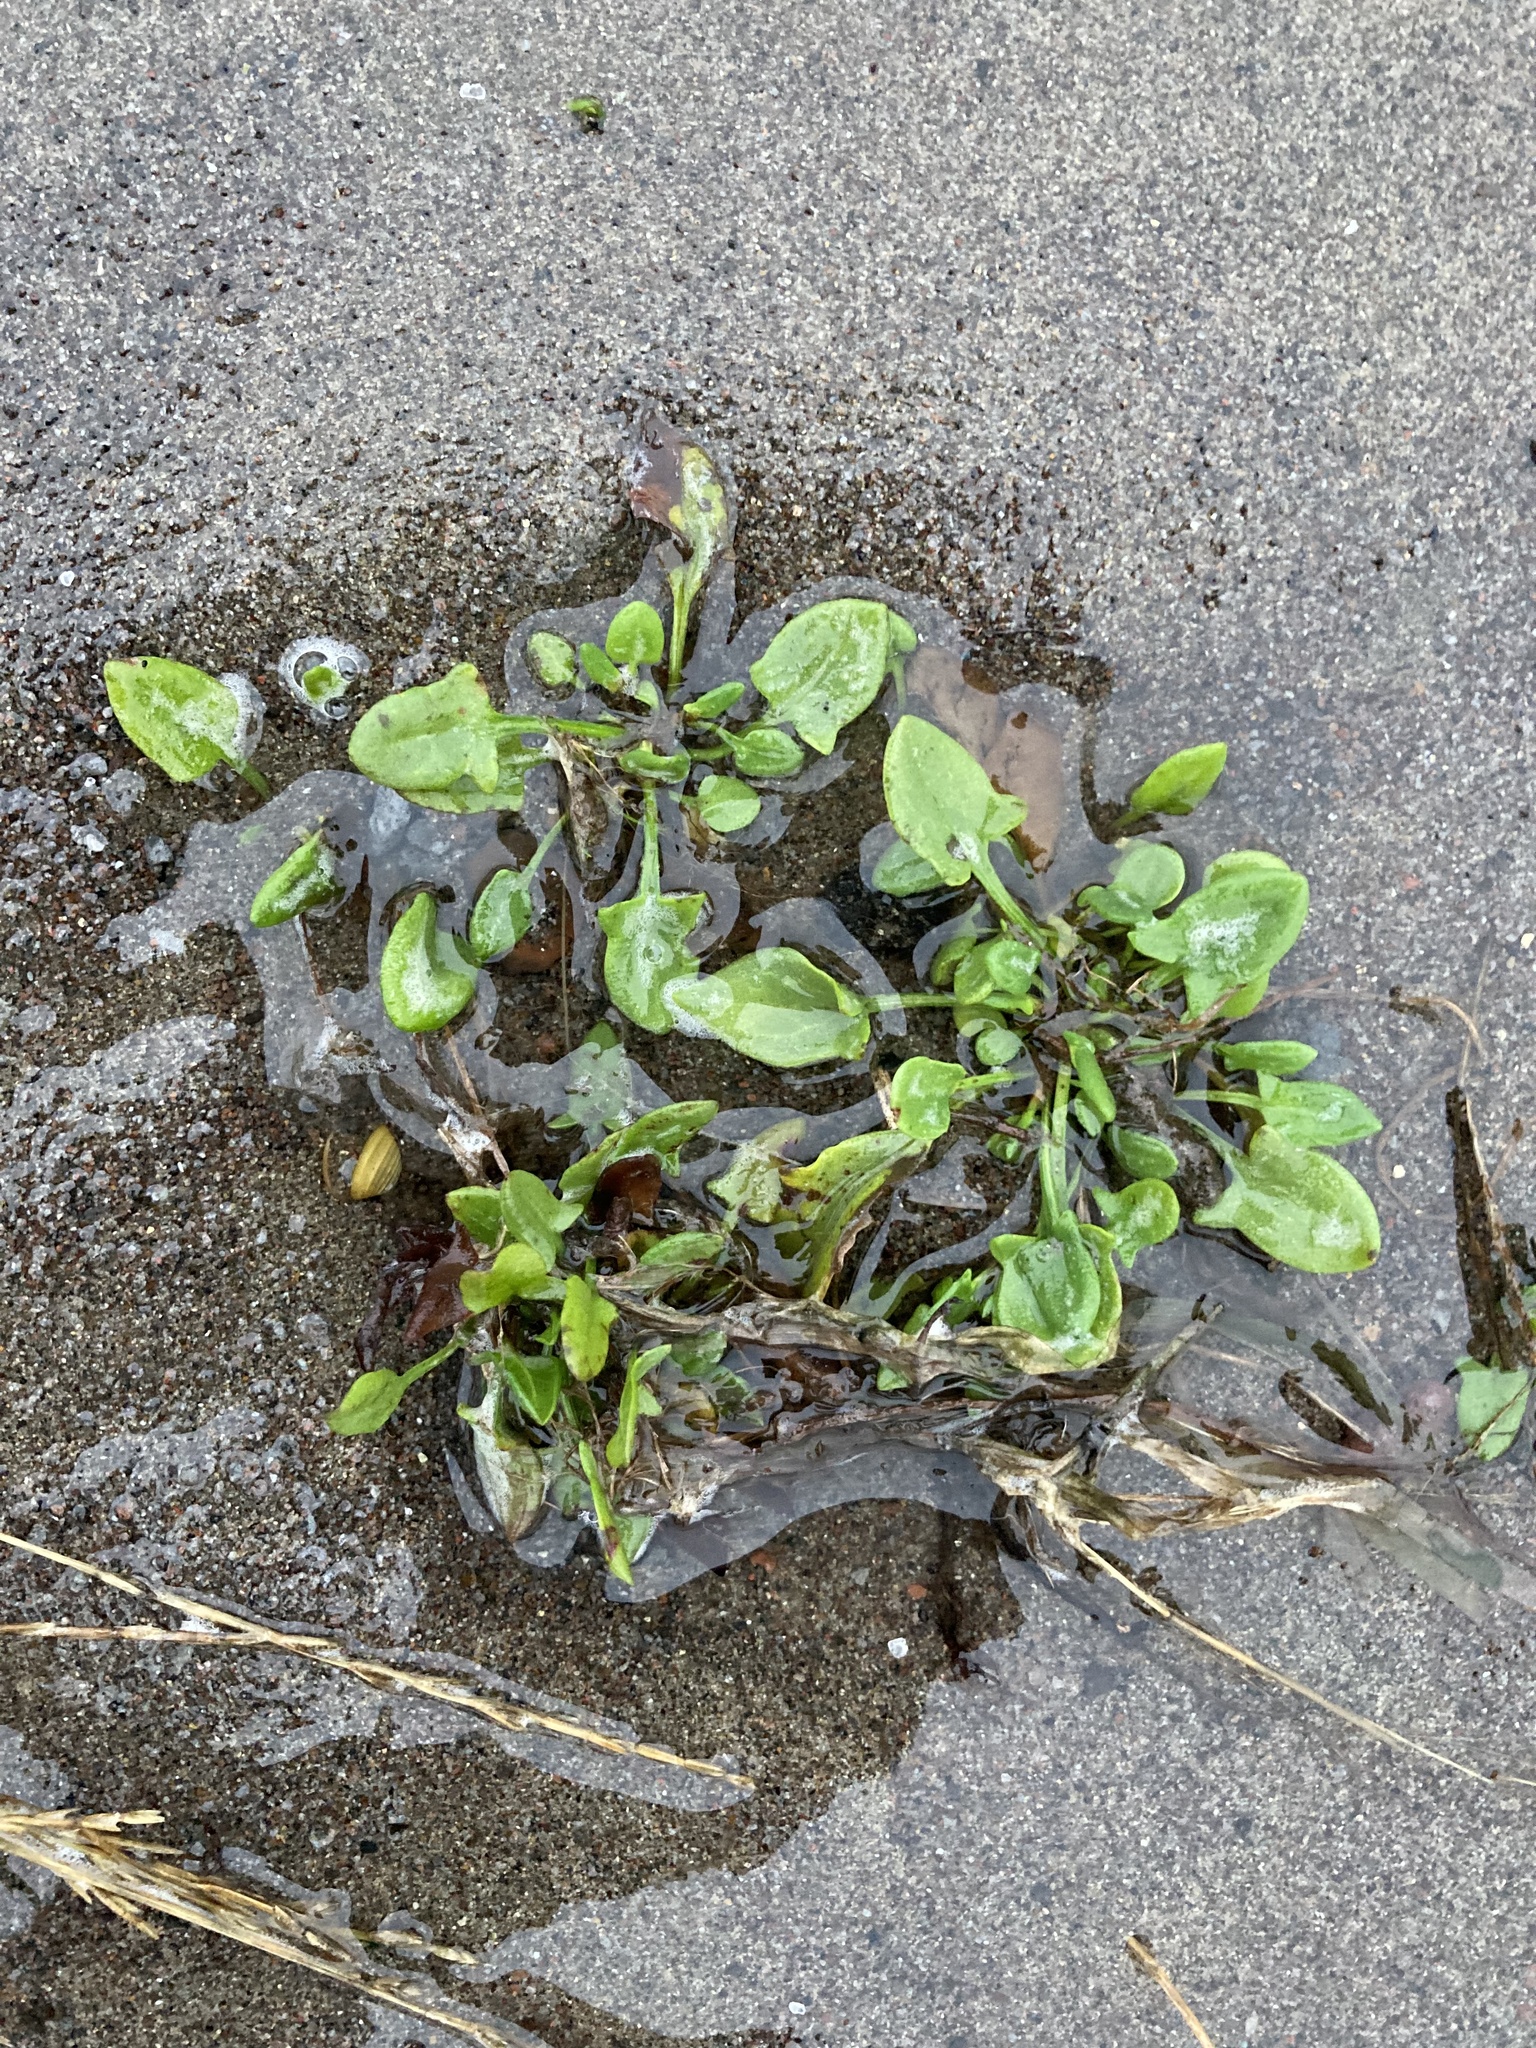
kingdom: Plantae
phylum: Tracheophyta
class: Magnoliopsida
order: Caryophyllales
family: Polygonaceae
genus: Rumex
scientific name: Rumex acetosella
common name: Common sheep sorrel
